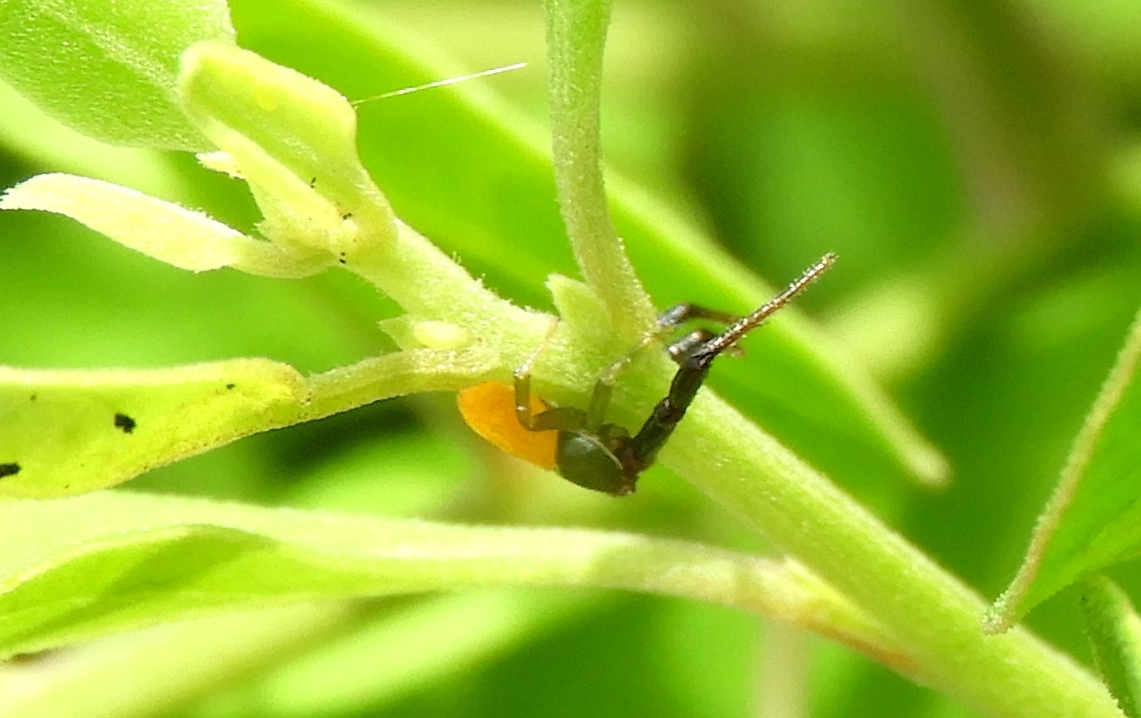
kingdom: Animalia
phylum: Arthropoda
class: Arachnida
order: Araneae
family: Thomisidae
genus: Misumenoides
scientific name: Misumenoides
